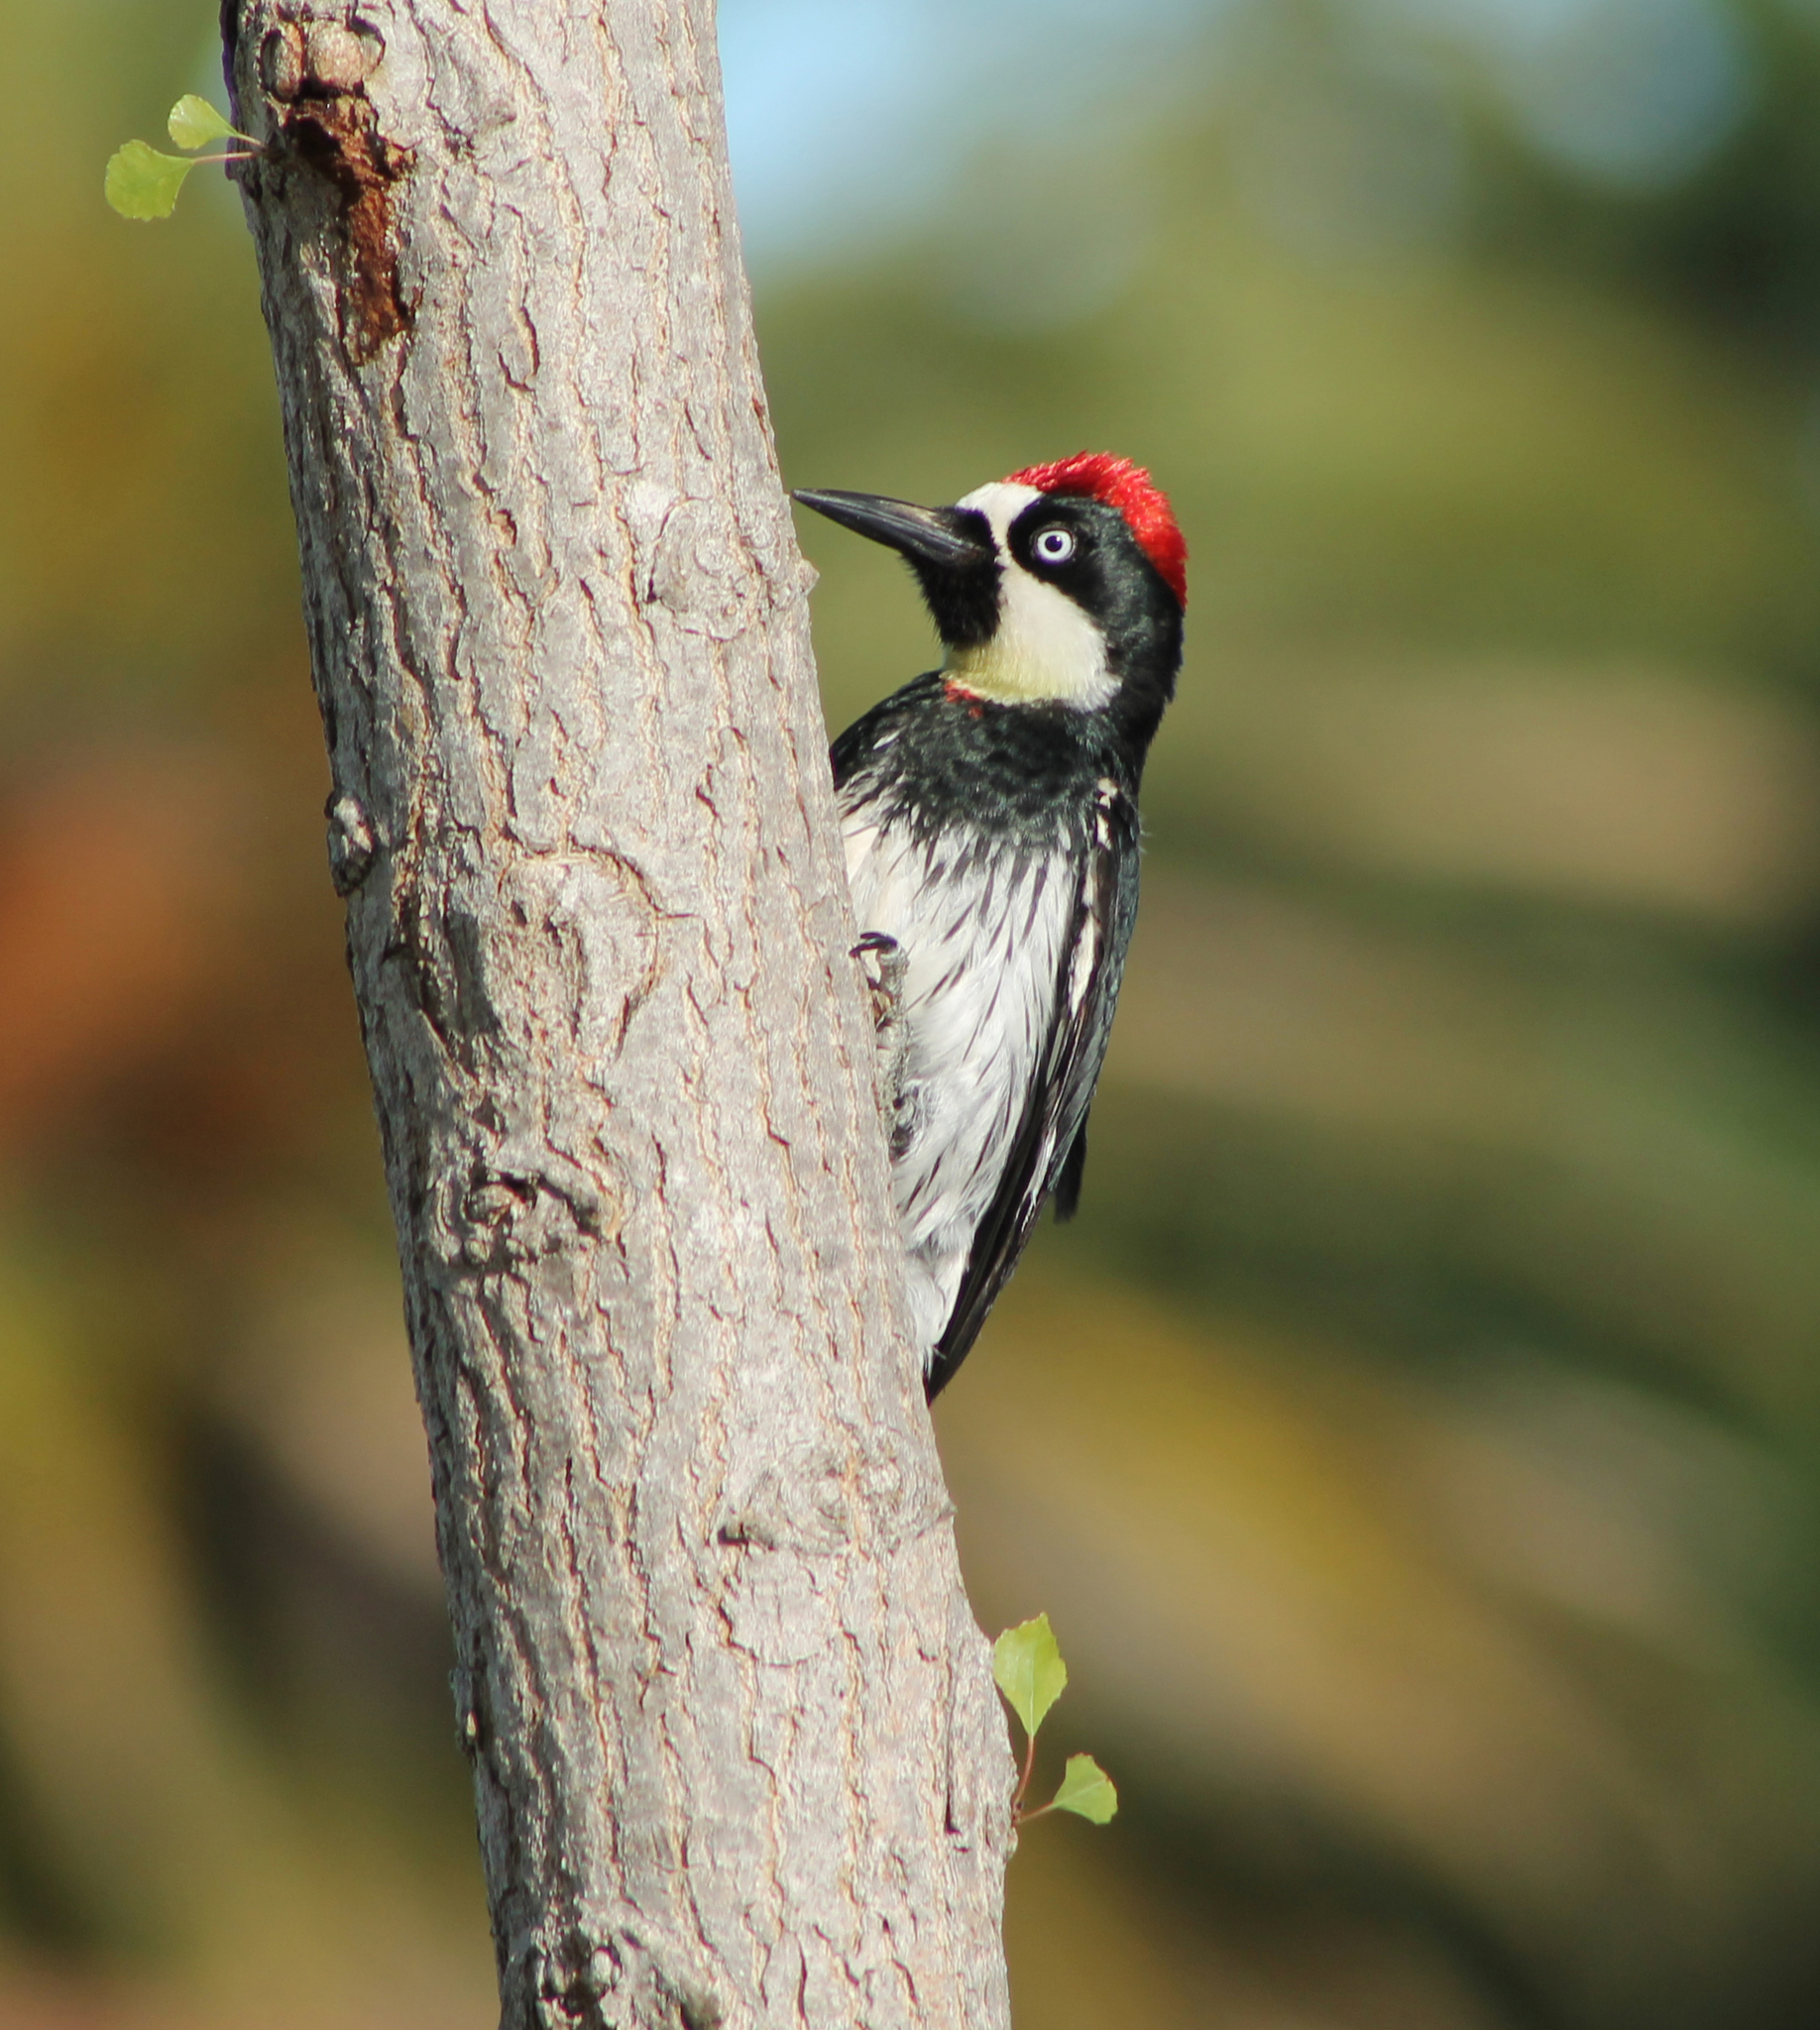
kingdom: Animalia
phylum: Chordata
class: Aves
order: Piciformes
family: Picidae
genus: Melanerpes
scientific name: Melanerpes formicivorus
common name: Acorn woodpecker
